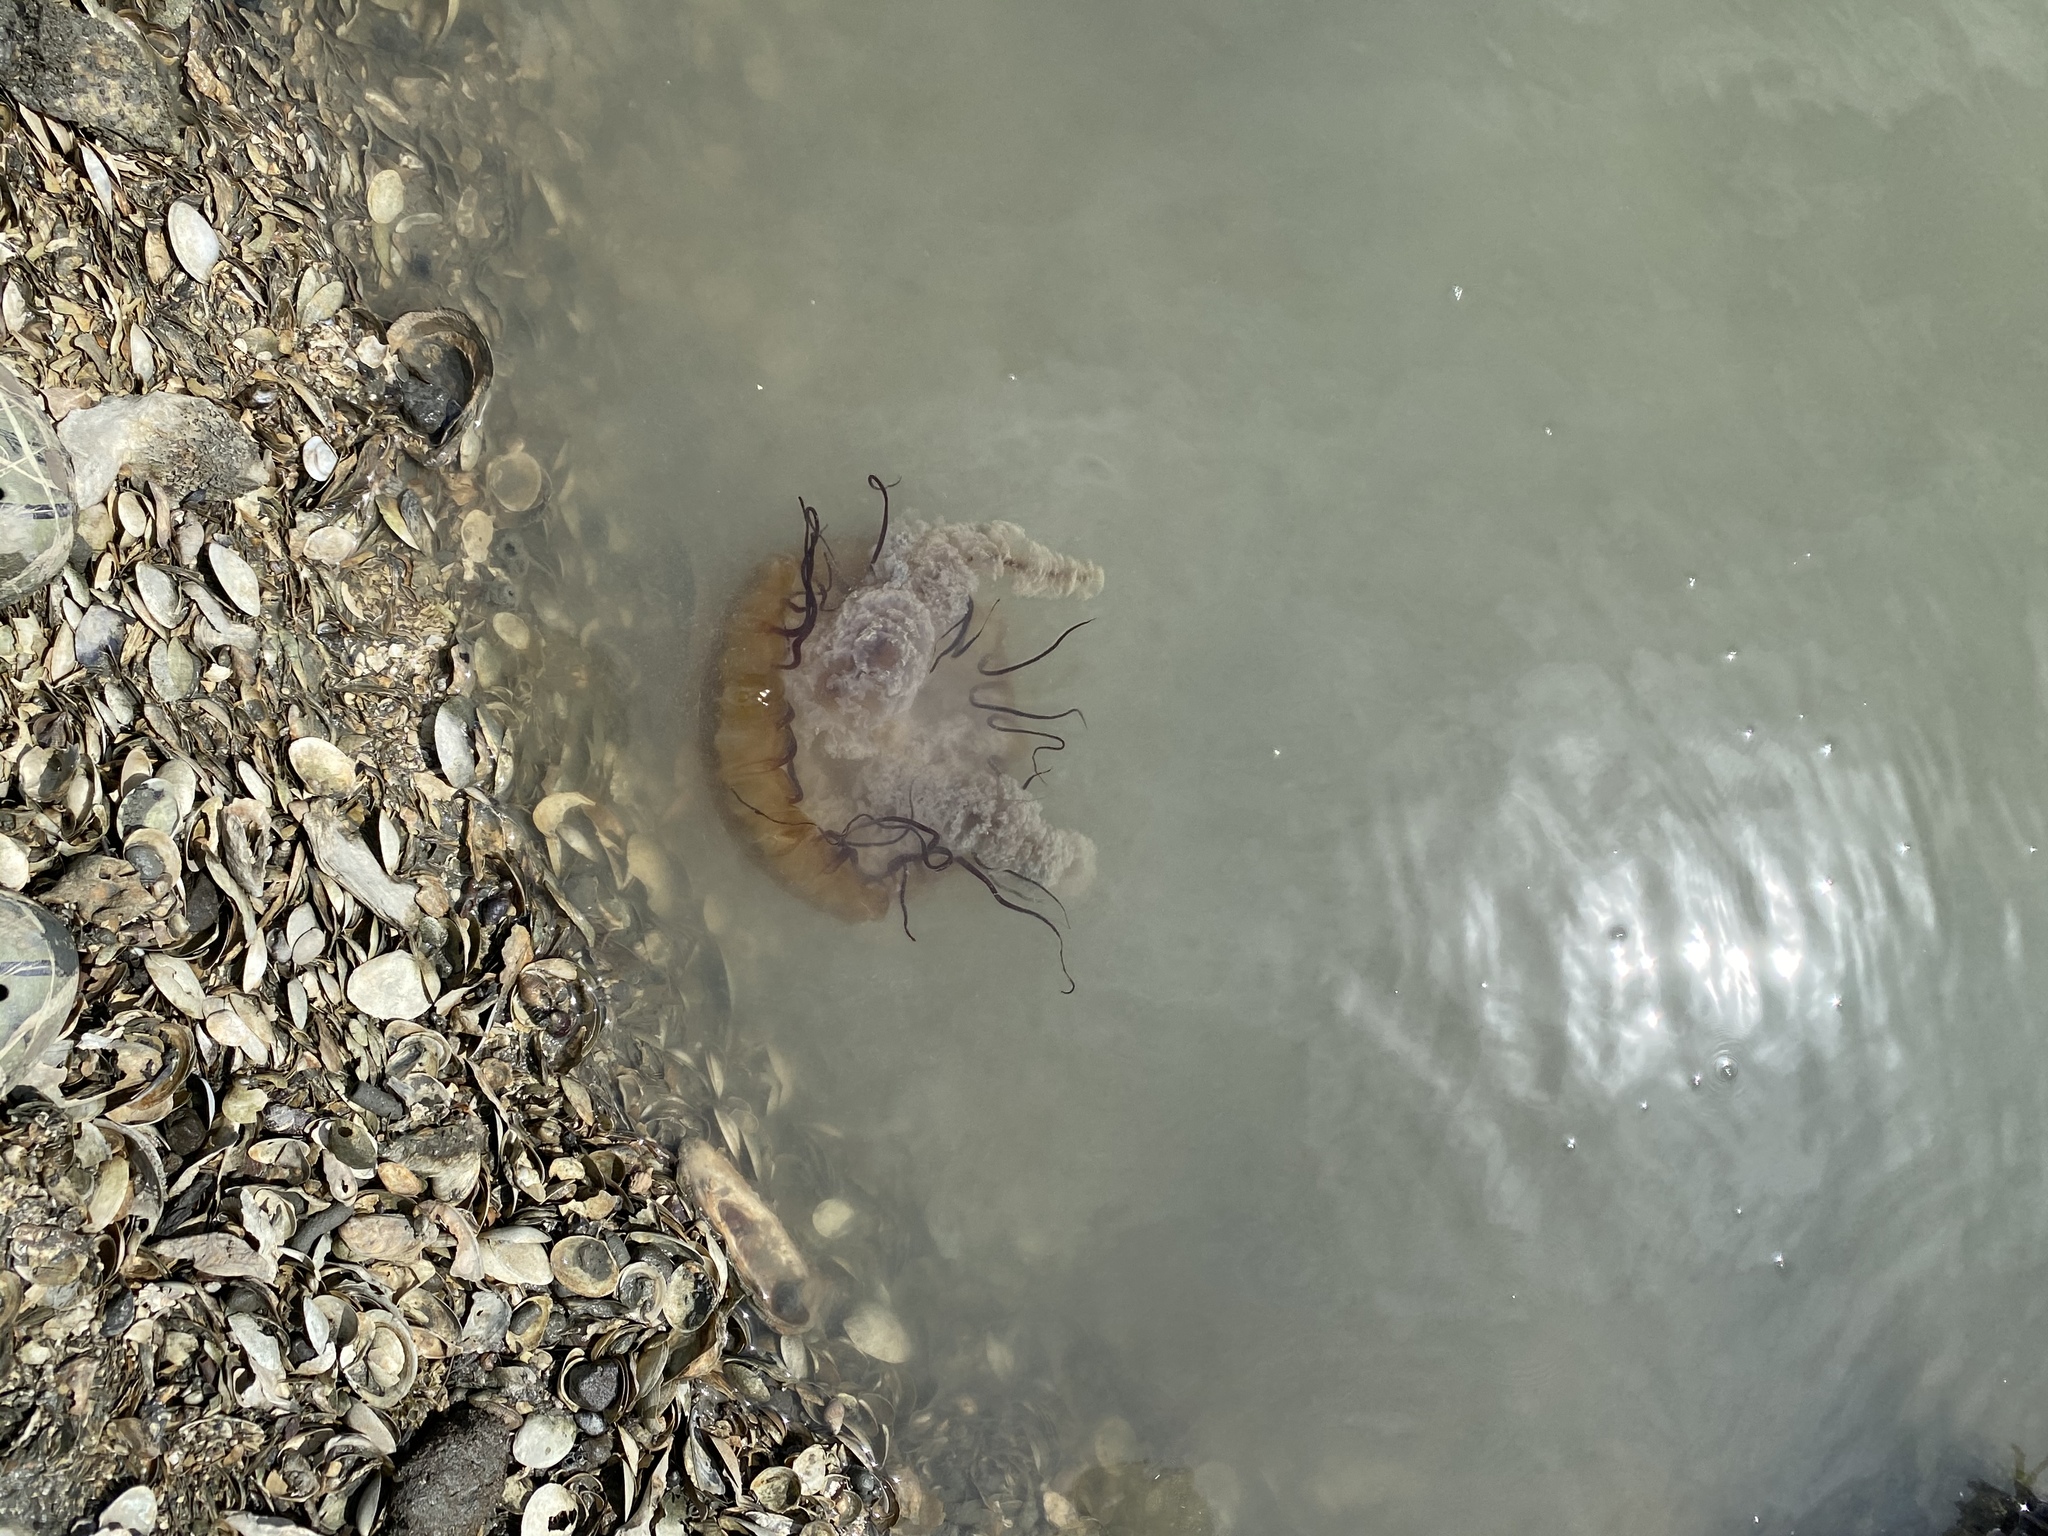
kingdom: Animalia
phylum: Cnidaria
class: Scyphozoa
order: Semaeostomeae
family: Pelagiidae
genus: Chrysaora
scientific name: Chrysaora fuscescens
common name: Sea nettle
